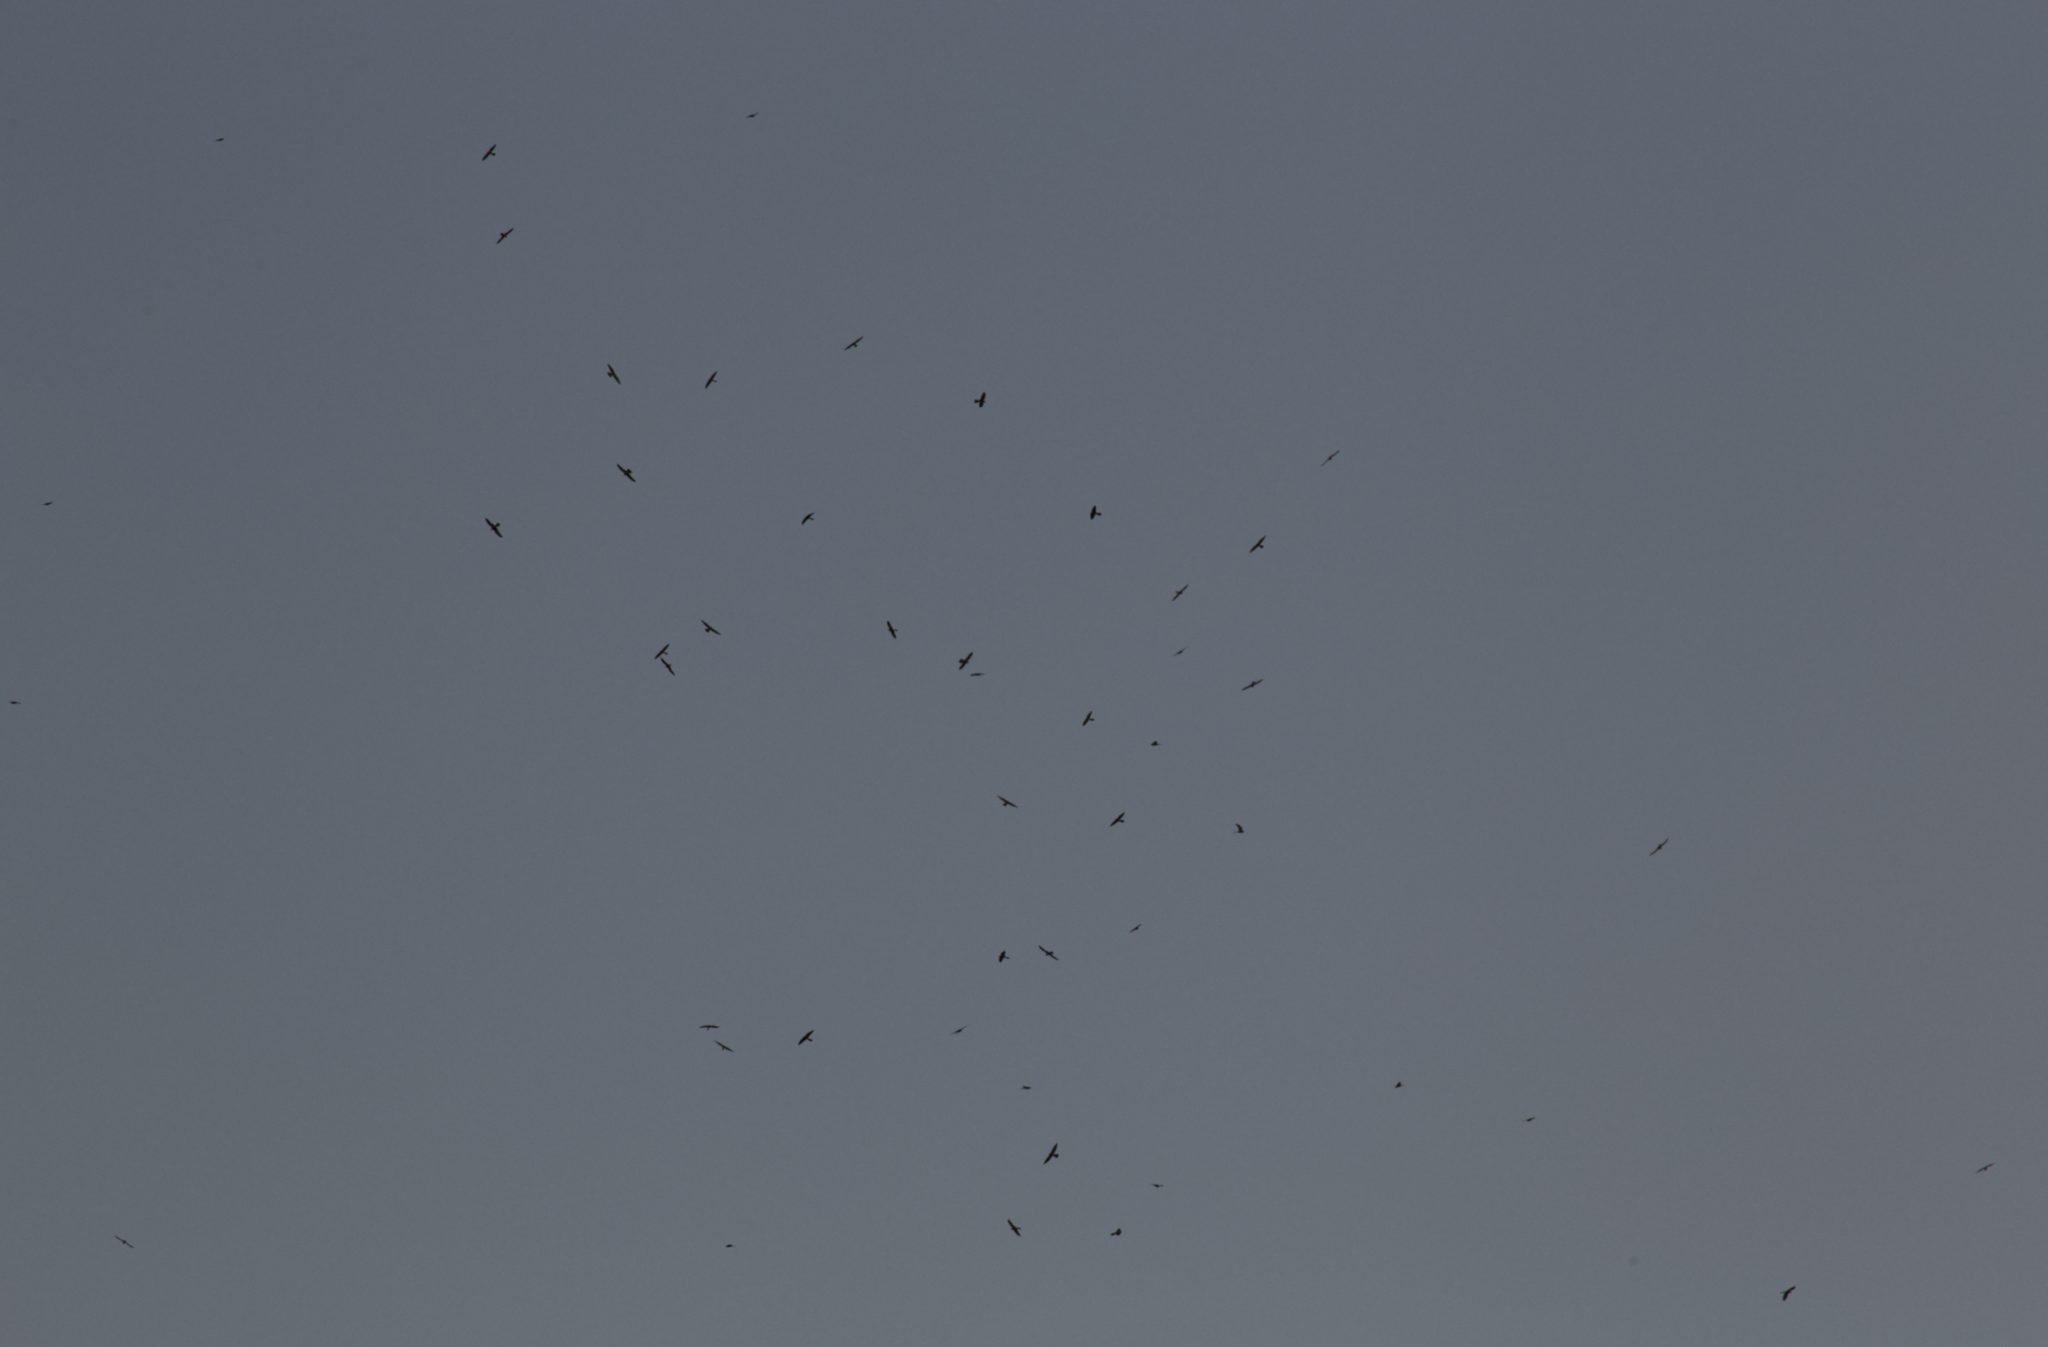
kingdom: Animalia
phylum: Chordata
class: Aves
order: Falconiformes
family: Falconidae
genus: Falco
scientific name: Falco naumanni
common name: Lesser kestrel
